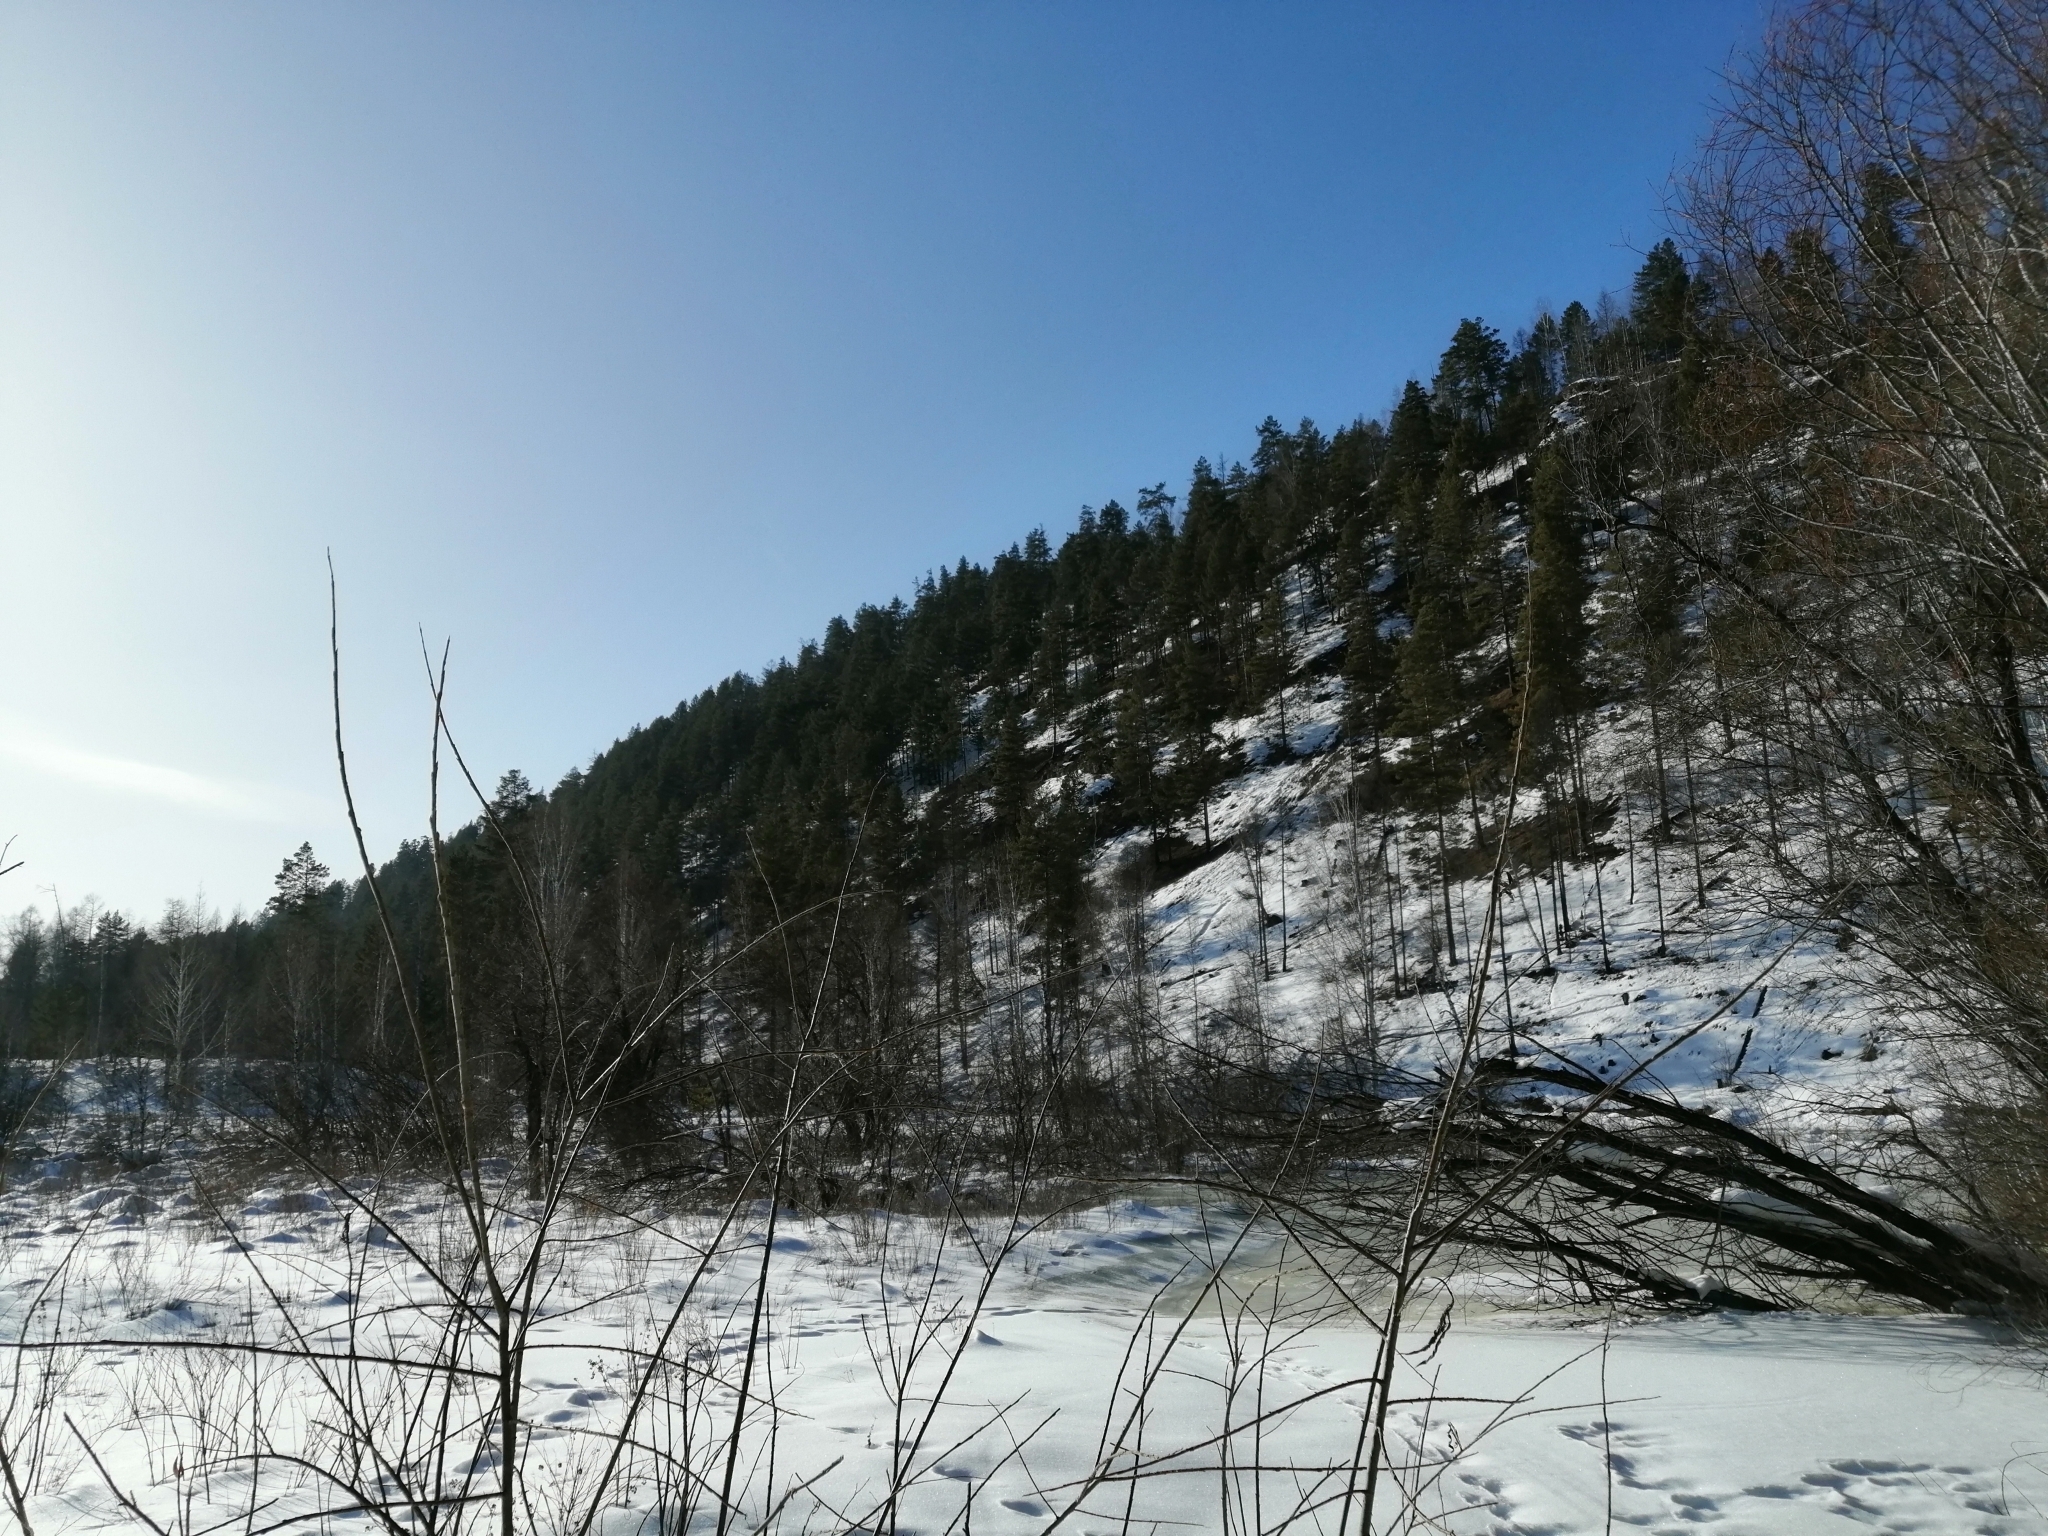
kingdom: Plantae
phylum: Tracheophyta
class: Pinopsida
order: Pinales
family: Pinaceae
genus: Pinus
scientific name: Pinus sylvestris
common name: Scots pine
